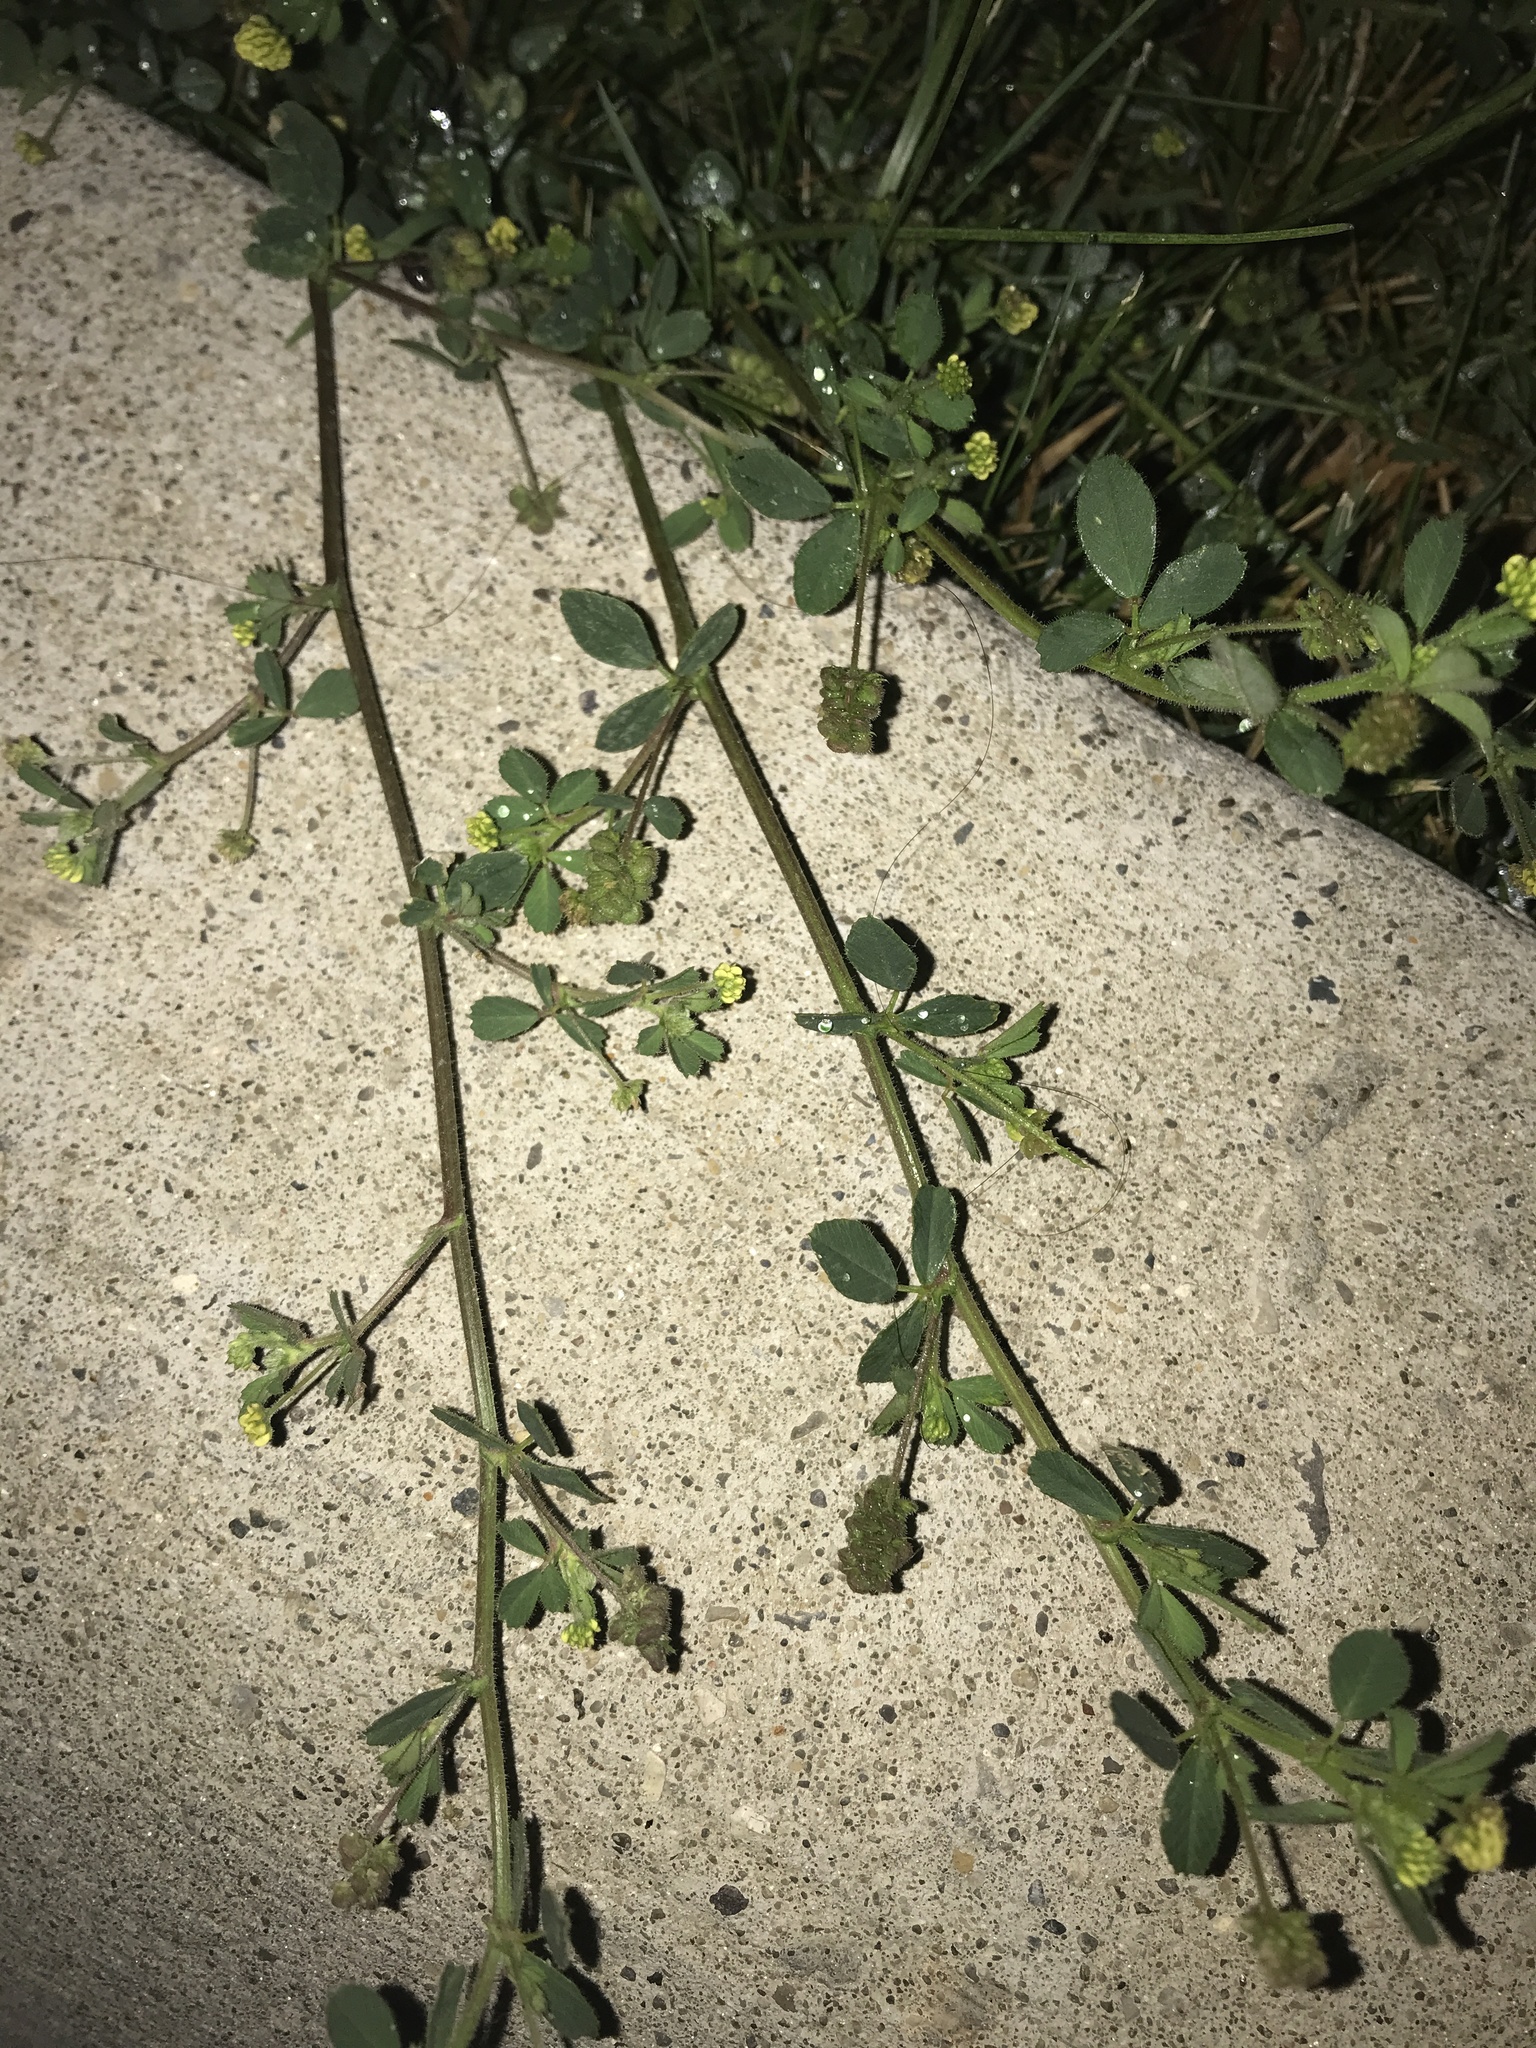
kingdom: Plantae
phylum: Tracheophyta
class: Magnoliopsida
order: Fabales
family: Fabaceae
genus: Medicago
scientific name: Medicago lupulina
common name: Black medick
